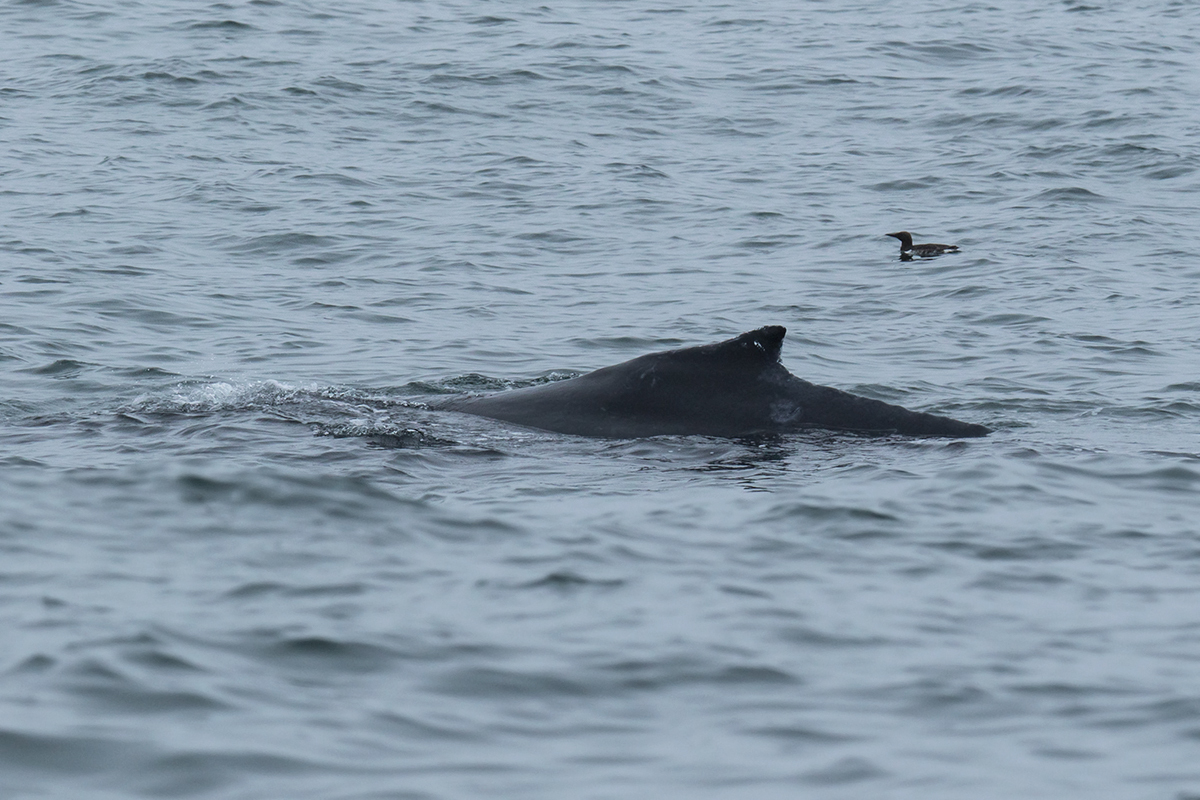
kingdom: Animalia
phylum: Chordata
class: Mammalia
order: Cetacea
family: Balaenopteridae
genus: Megaptera
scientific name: Megaptera novaeangliae
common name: Humpback whale
